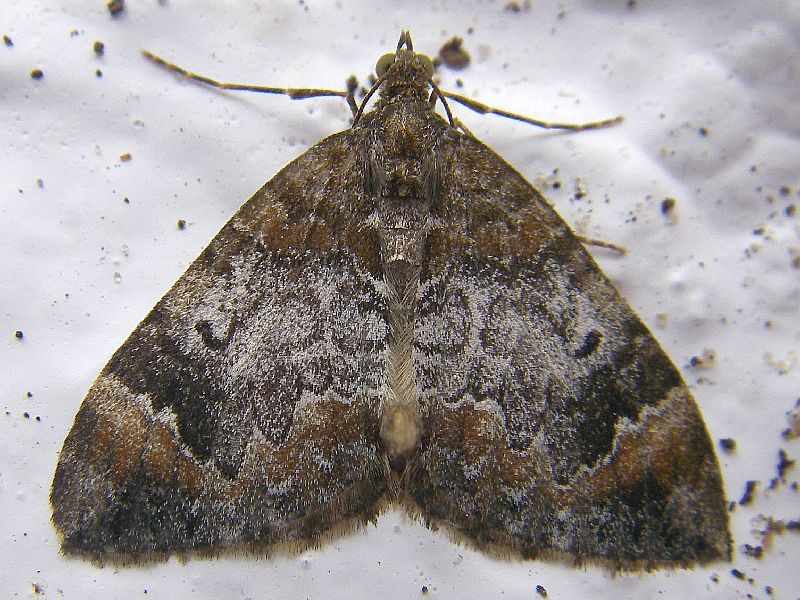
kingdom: Animalia
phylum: Arthropoda
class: Insecta
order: Lepidoptera
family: Geometridae
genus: Dysstroma
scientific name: Dysstroma truncata
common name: Common marbled carpet
